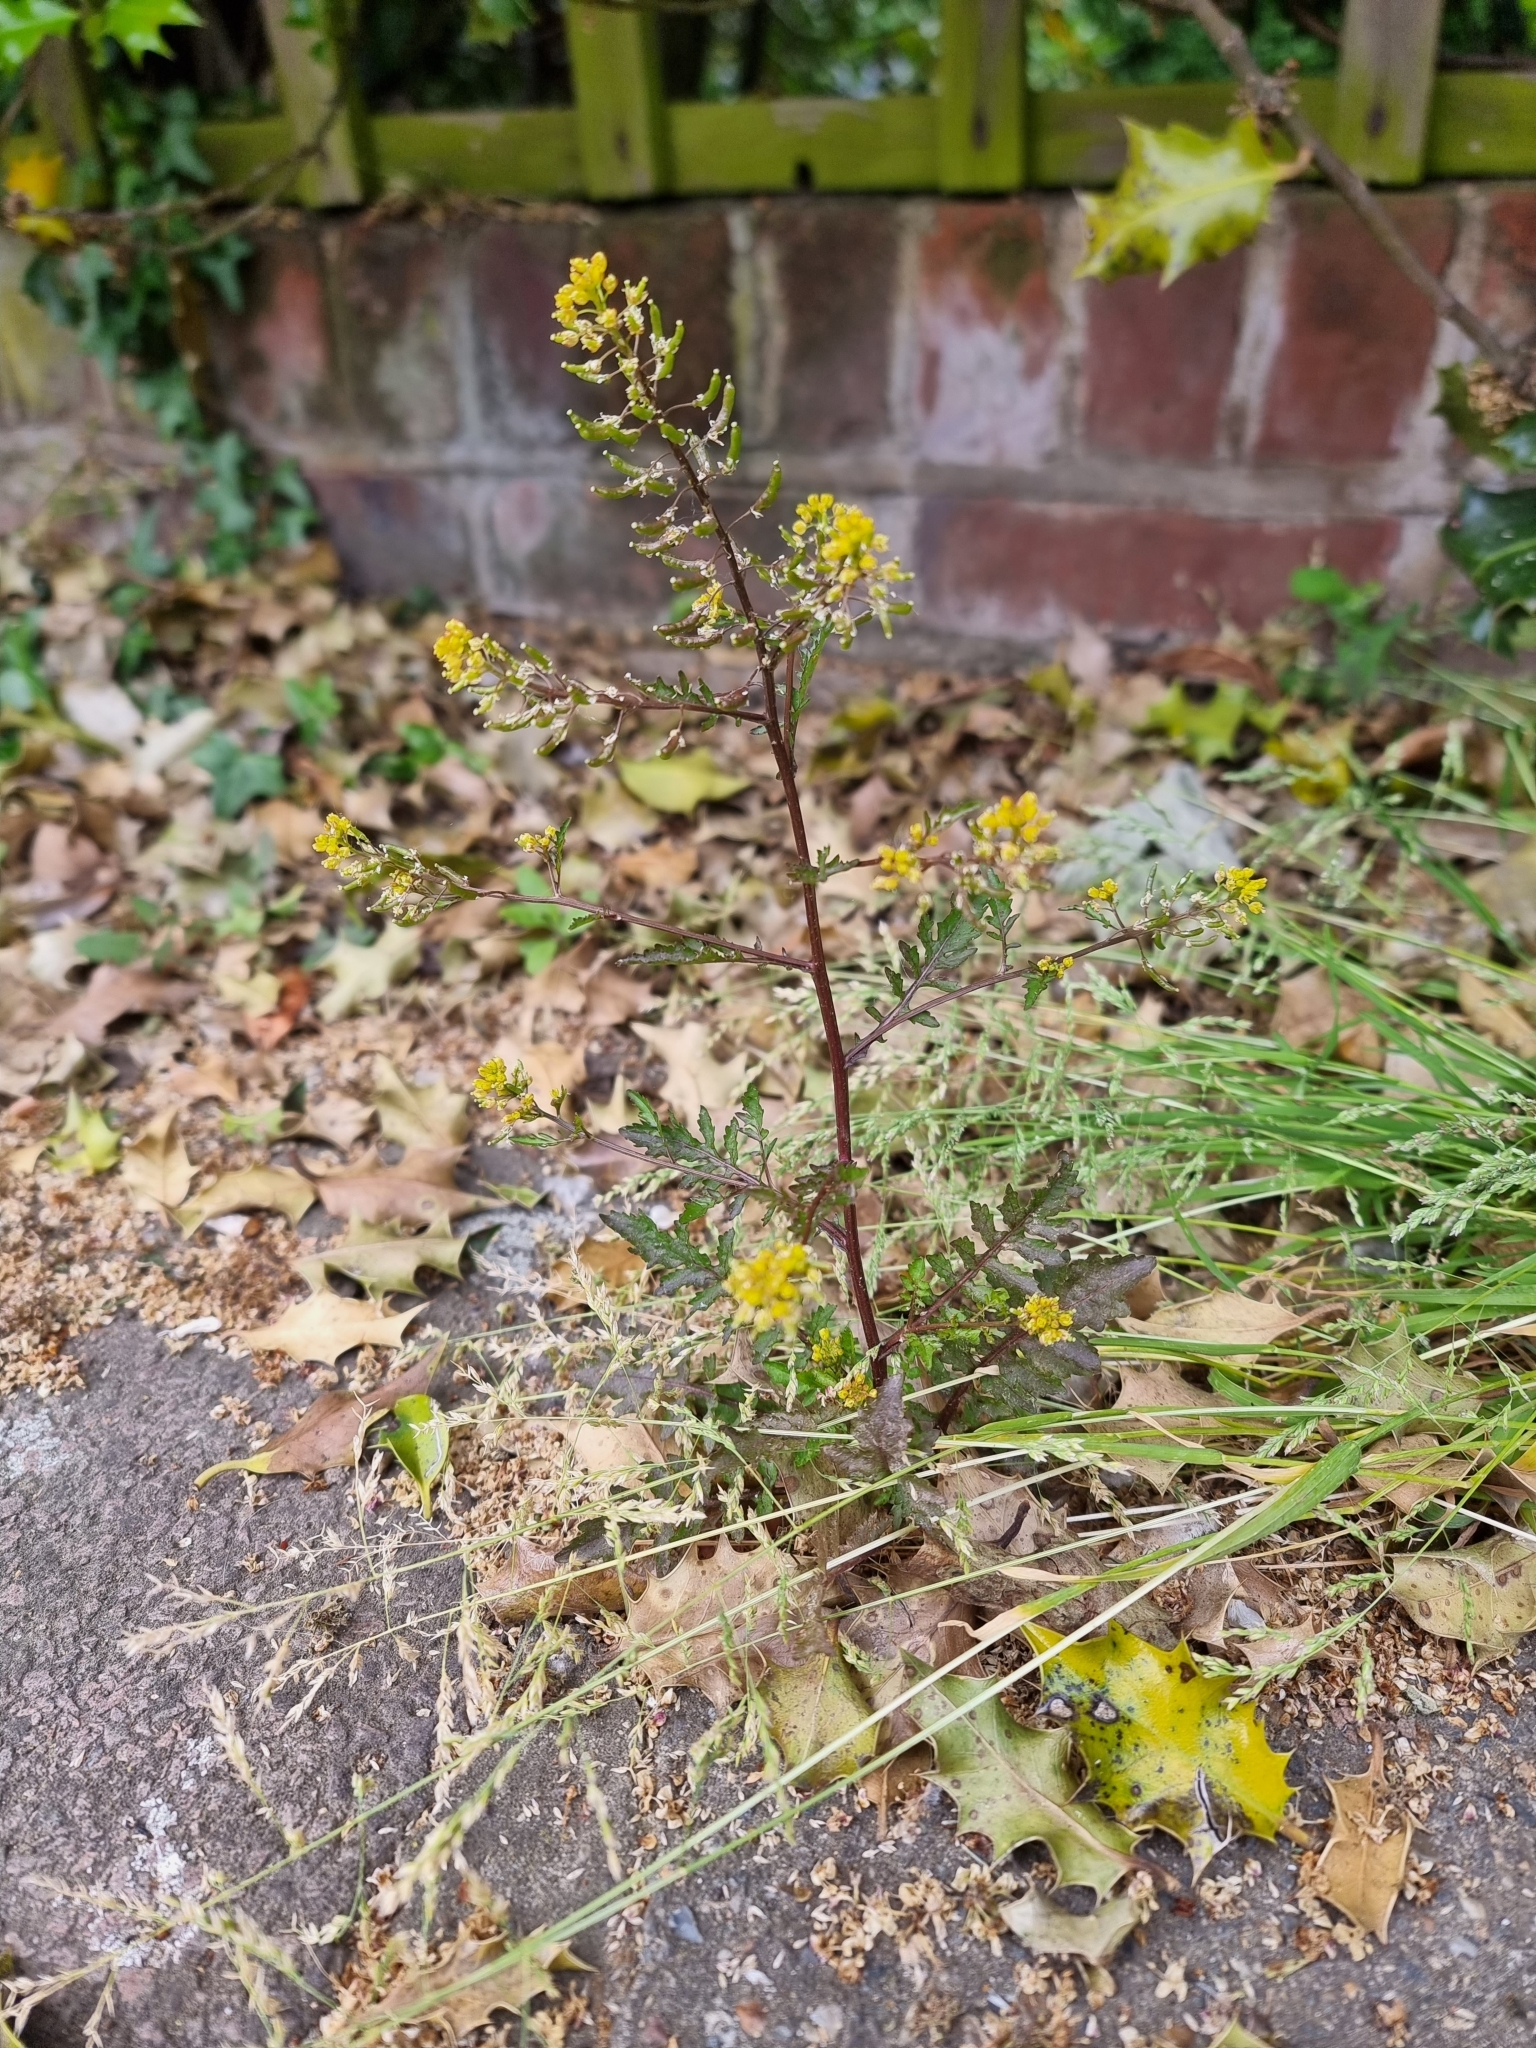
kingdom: Plantae
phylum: Tracheophyta
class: Magnoliopsida
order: Brassicales
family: Brassicaceae
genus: Rorippa
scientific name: Rorippa palustris
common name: Marsh yellow-cress
